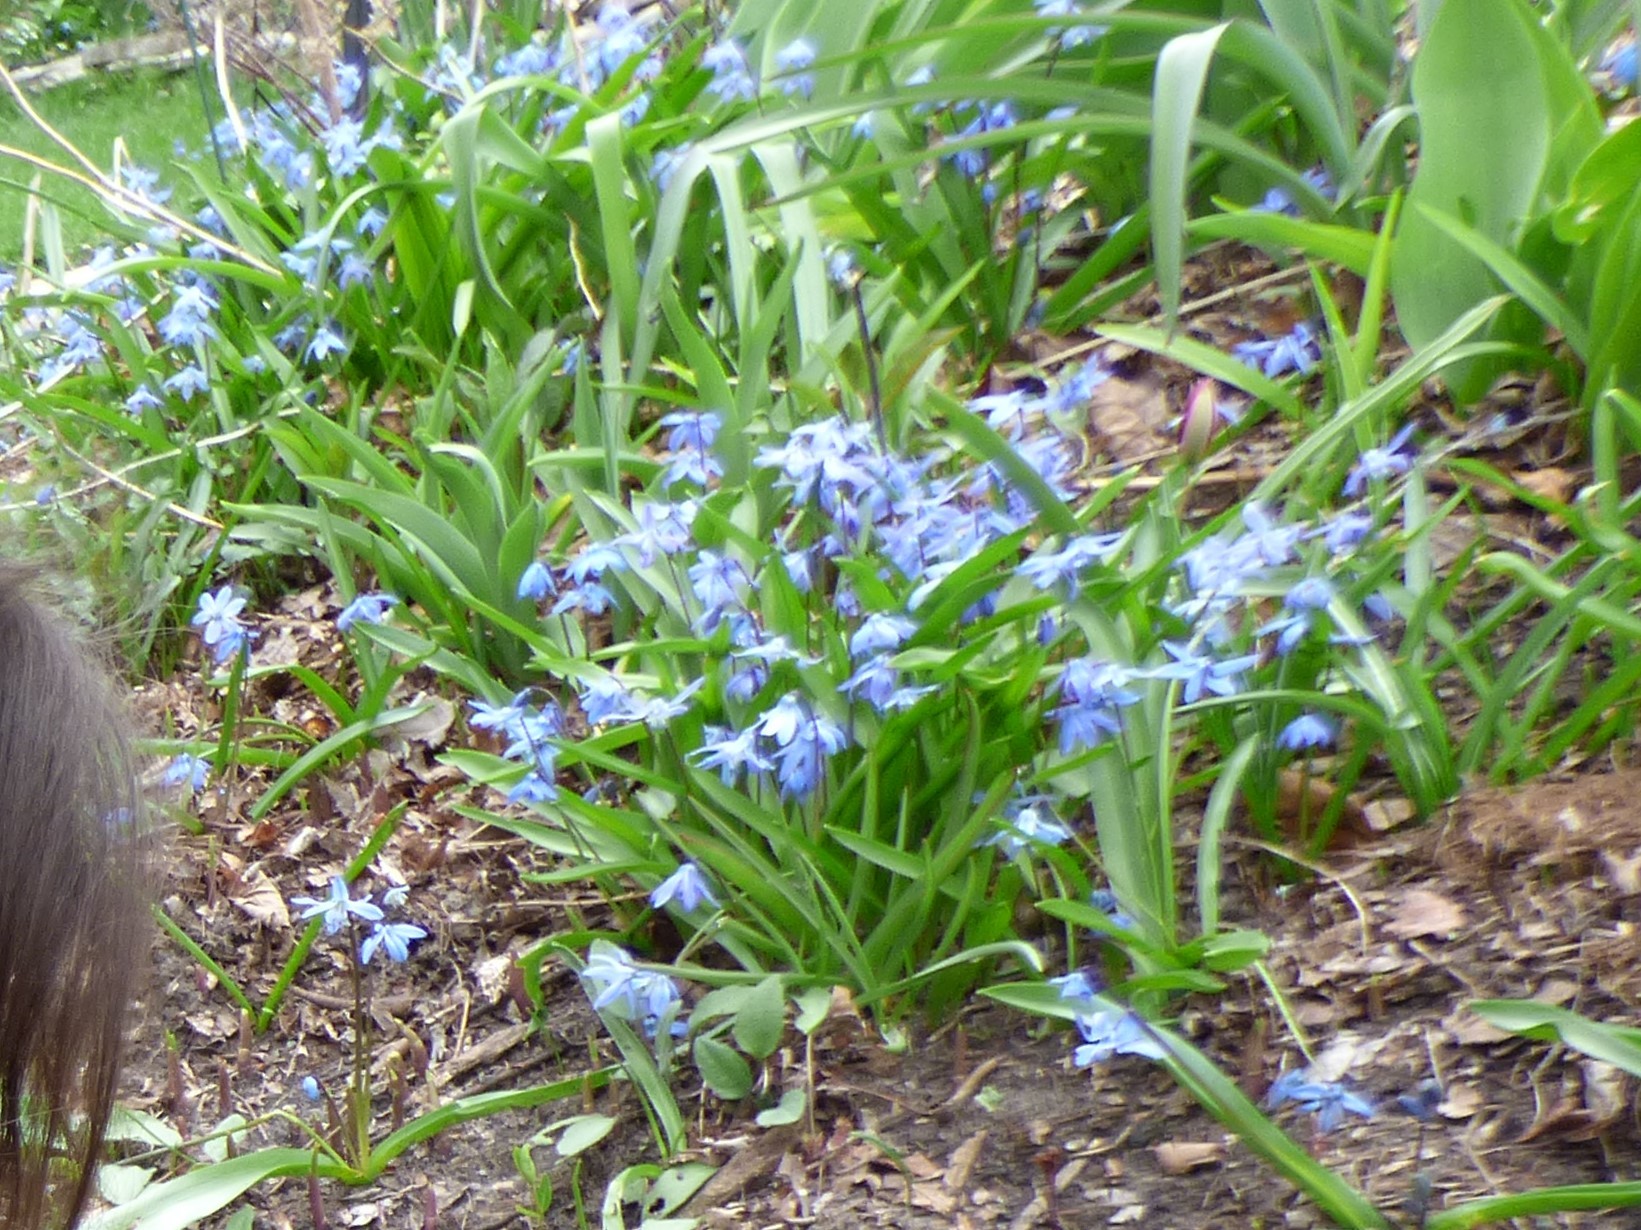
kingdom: Plantae
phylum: Tracheophyta
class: Liliopsida
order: Asparagales
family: Asparagaceae
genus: Scilla
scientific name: Scilla siberica
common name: Siberian squill
